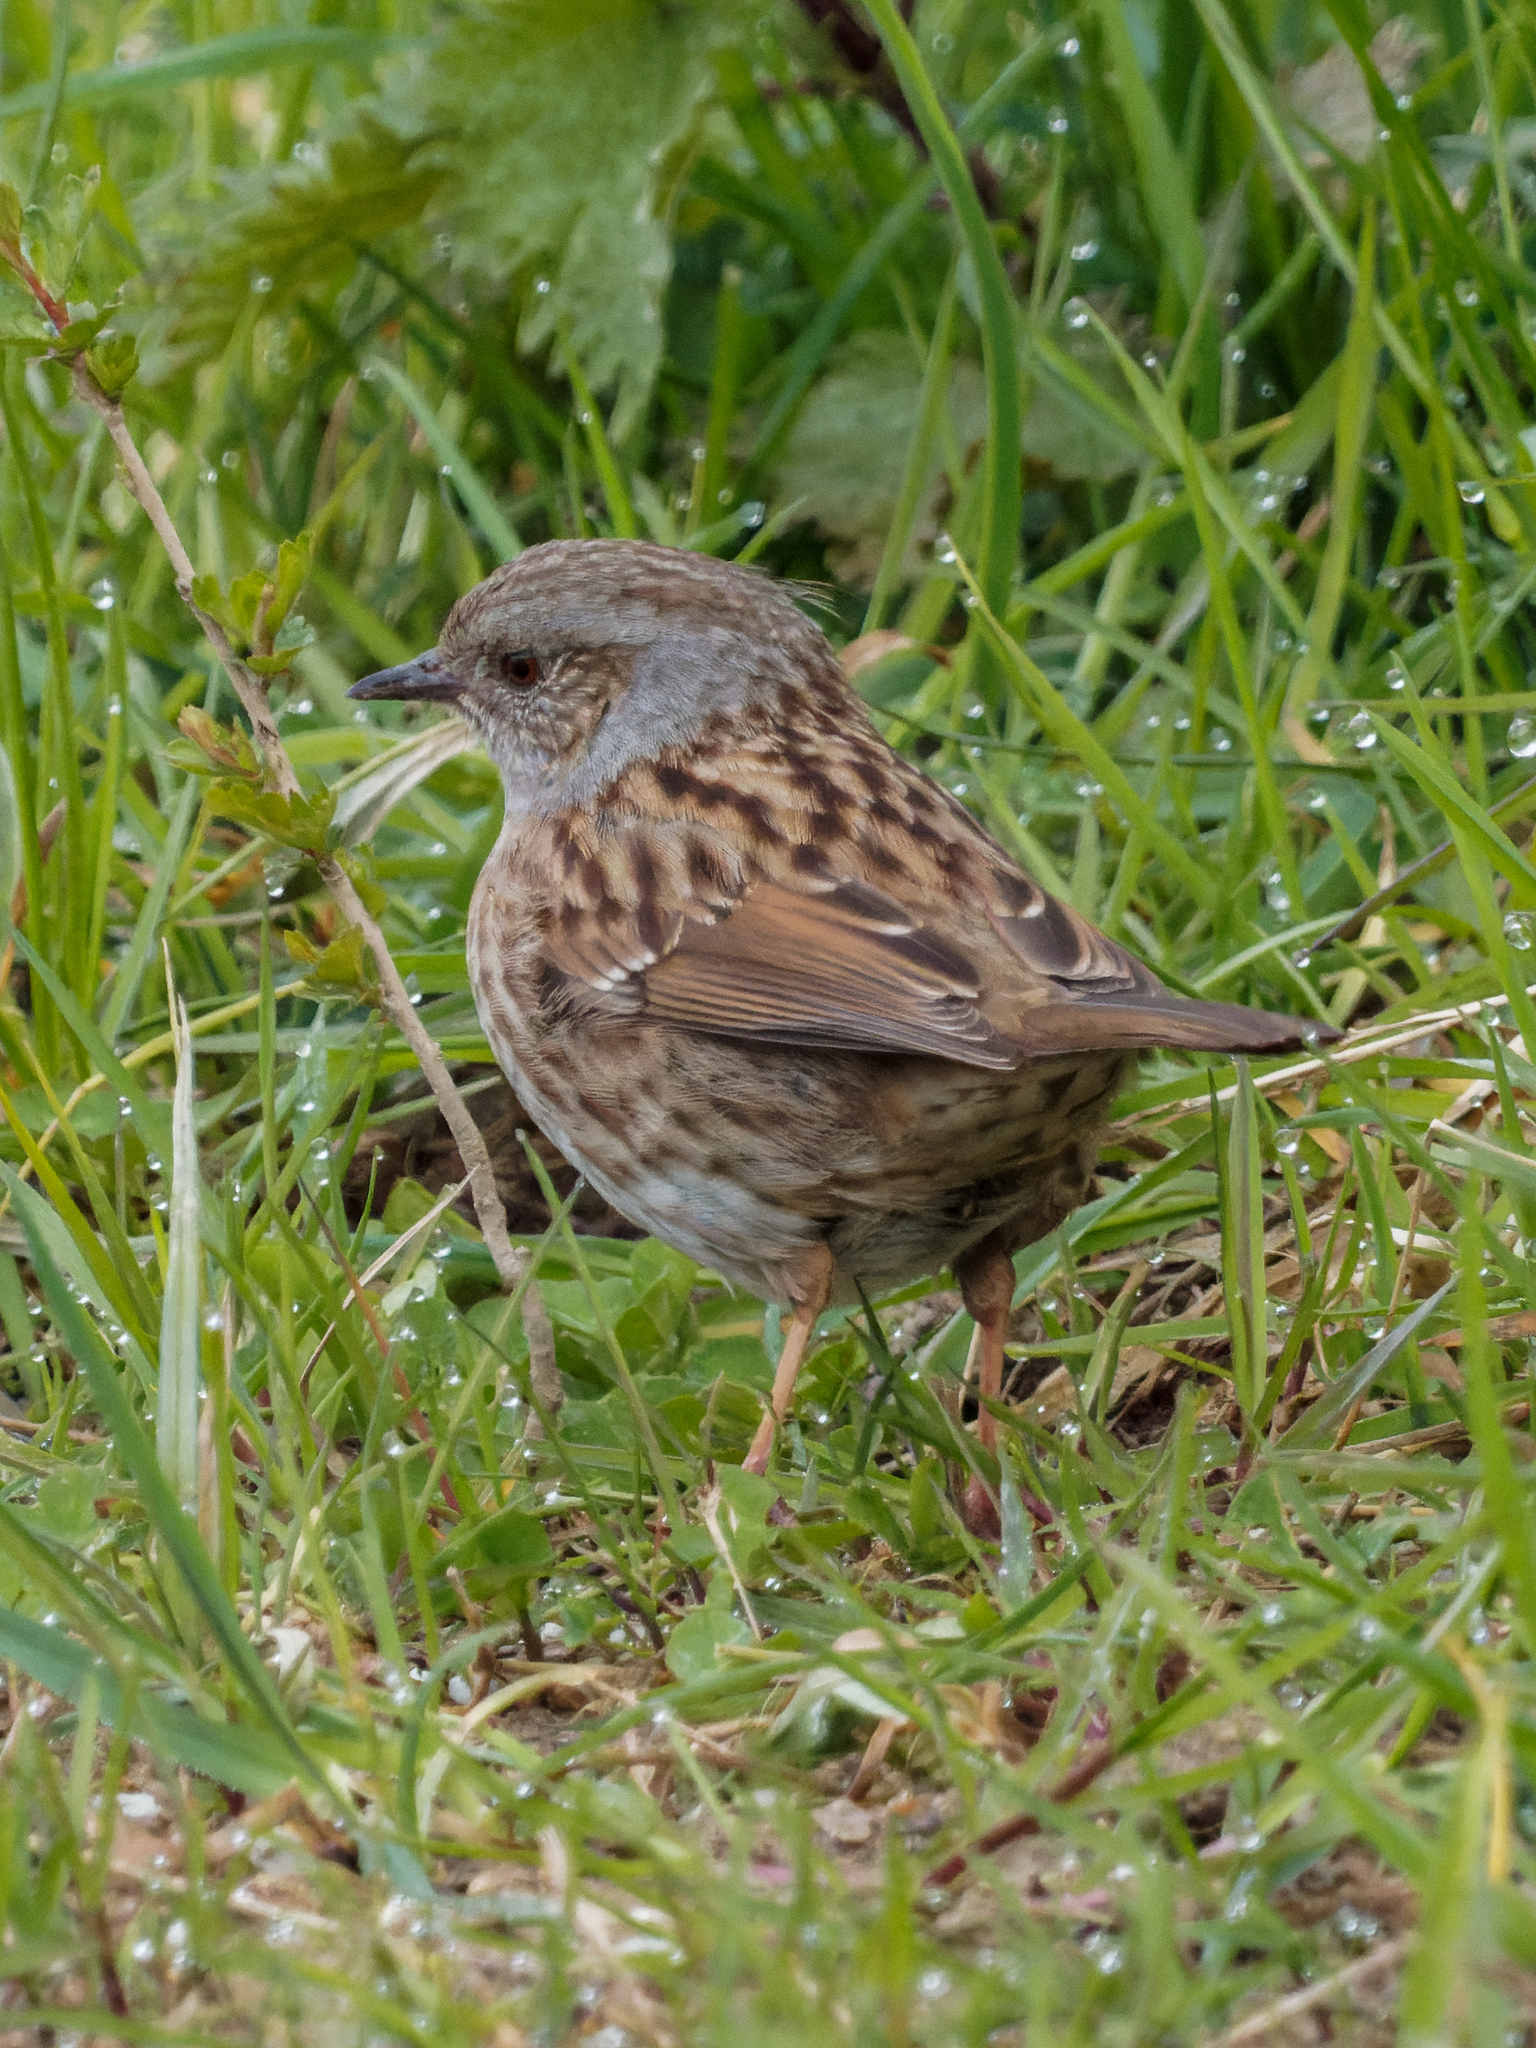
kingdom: Animalia
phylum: Chordata
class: Aves
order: Passeriformes
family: Prunellidae
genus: Prunella
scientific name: Prunella modularis
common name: Dunnock
